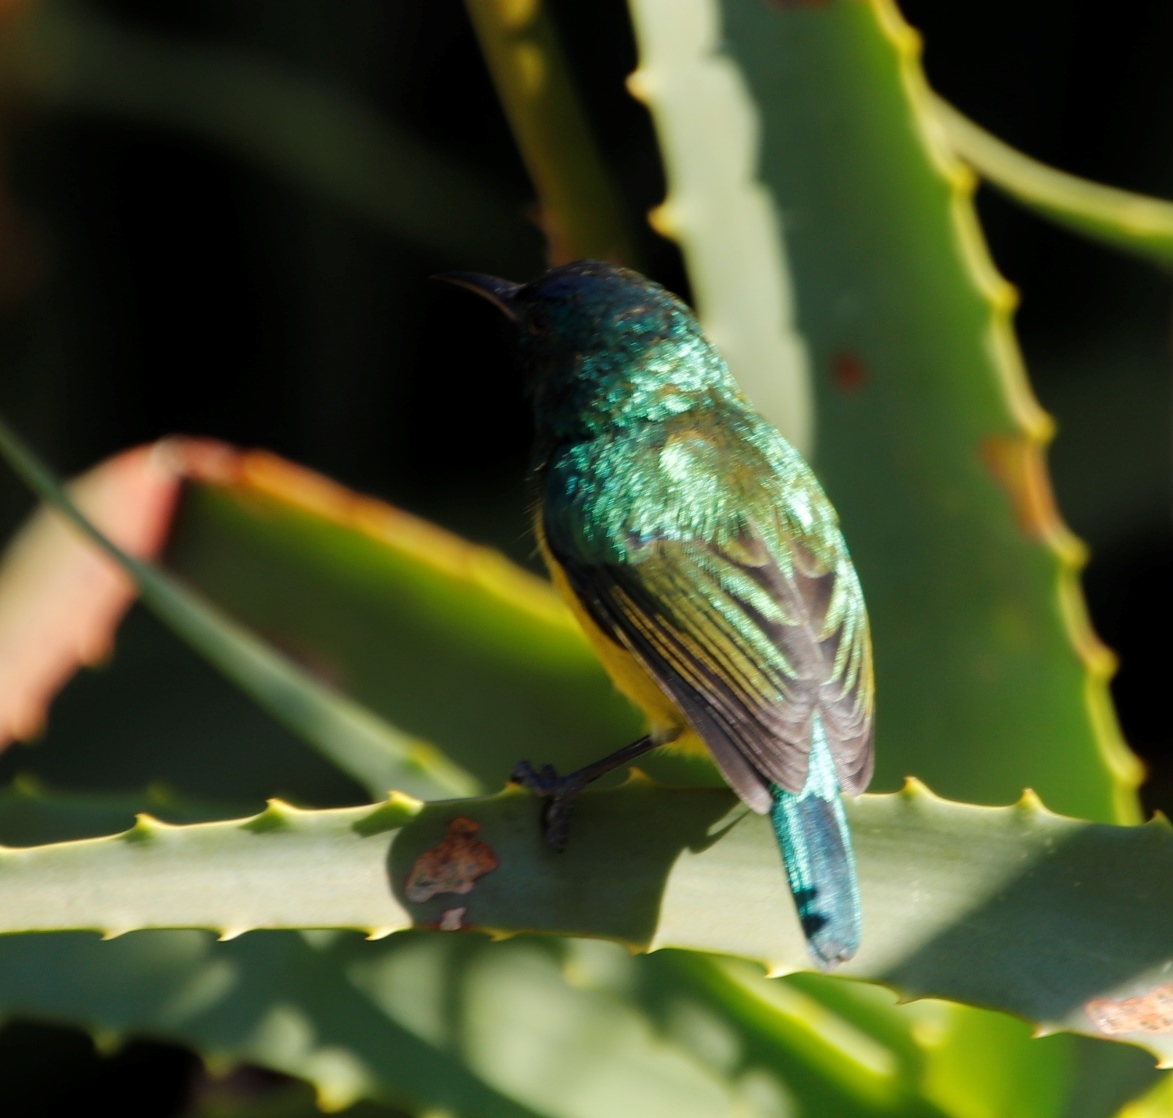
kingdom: Animalia
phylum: Chordata
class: Aves
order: Passeriformes
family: Nectariniidae
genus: Hedydipna
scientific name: Hedydipna collaris
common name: Collared sunbird
